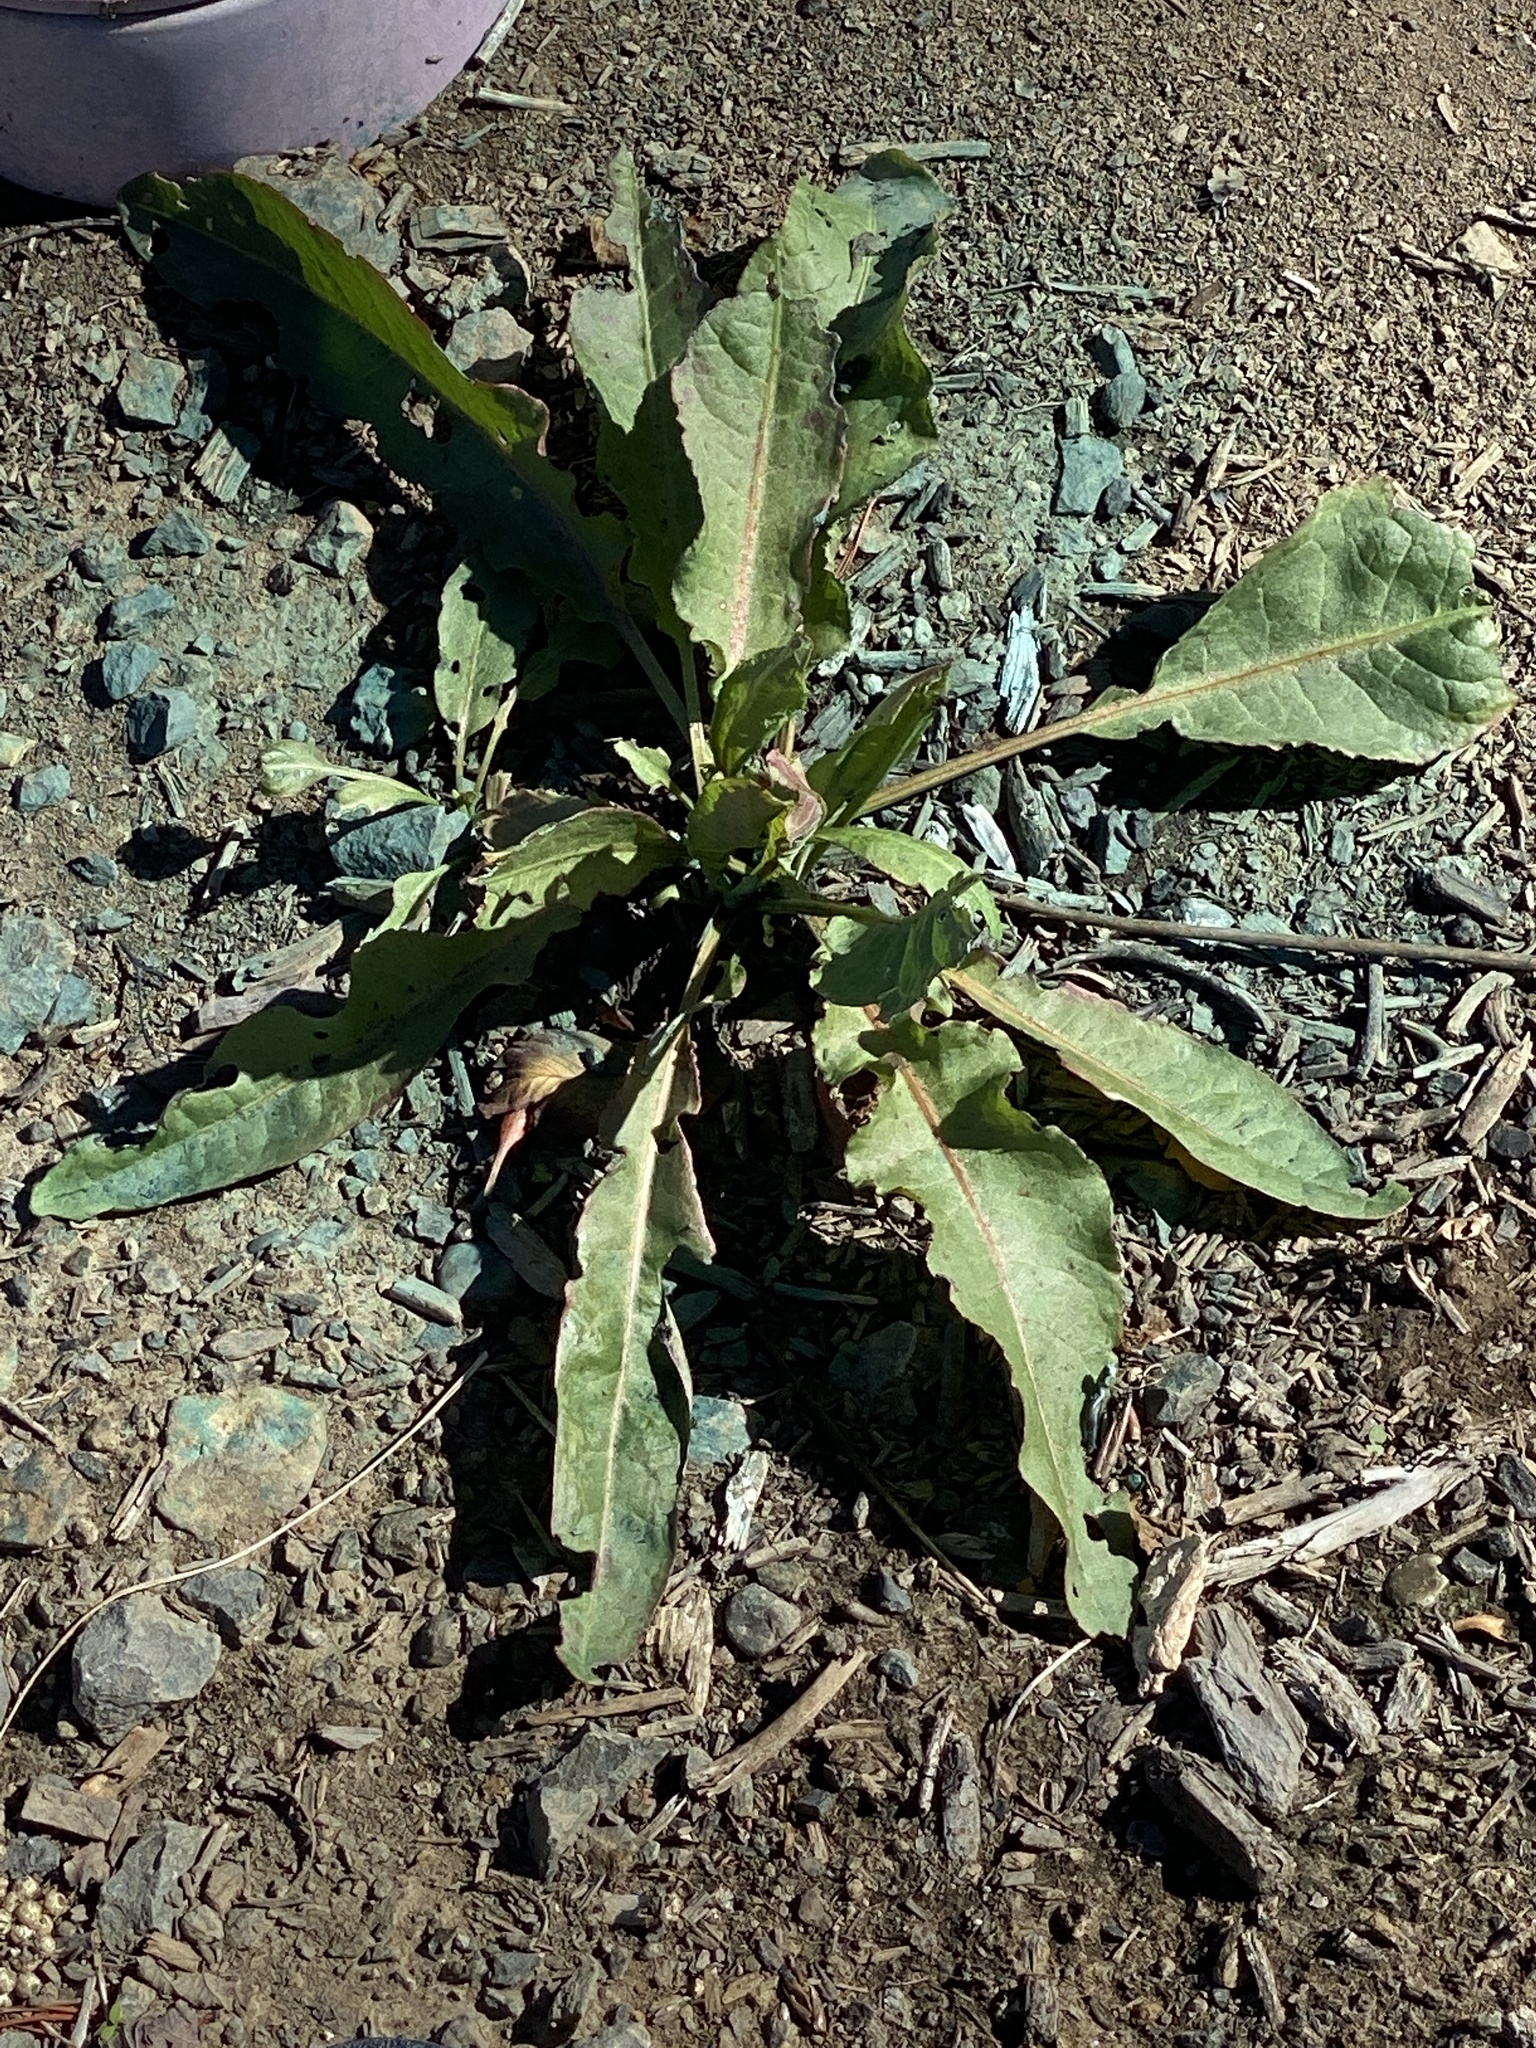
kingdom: Plantae
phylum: Tracheophyta
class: Magnoliopsida
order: Caryophyllales
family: Polygonaceae
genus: Rumex
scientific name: Rumex crispus
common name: Curled dock
